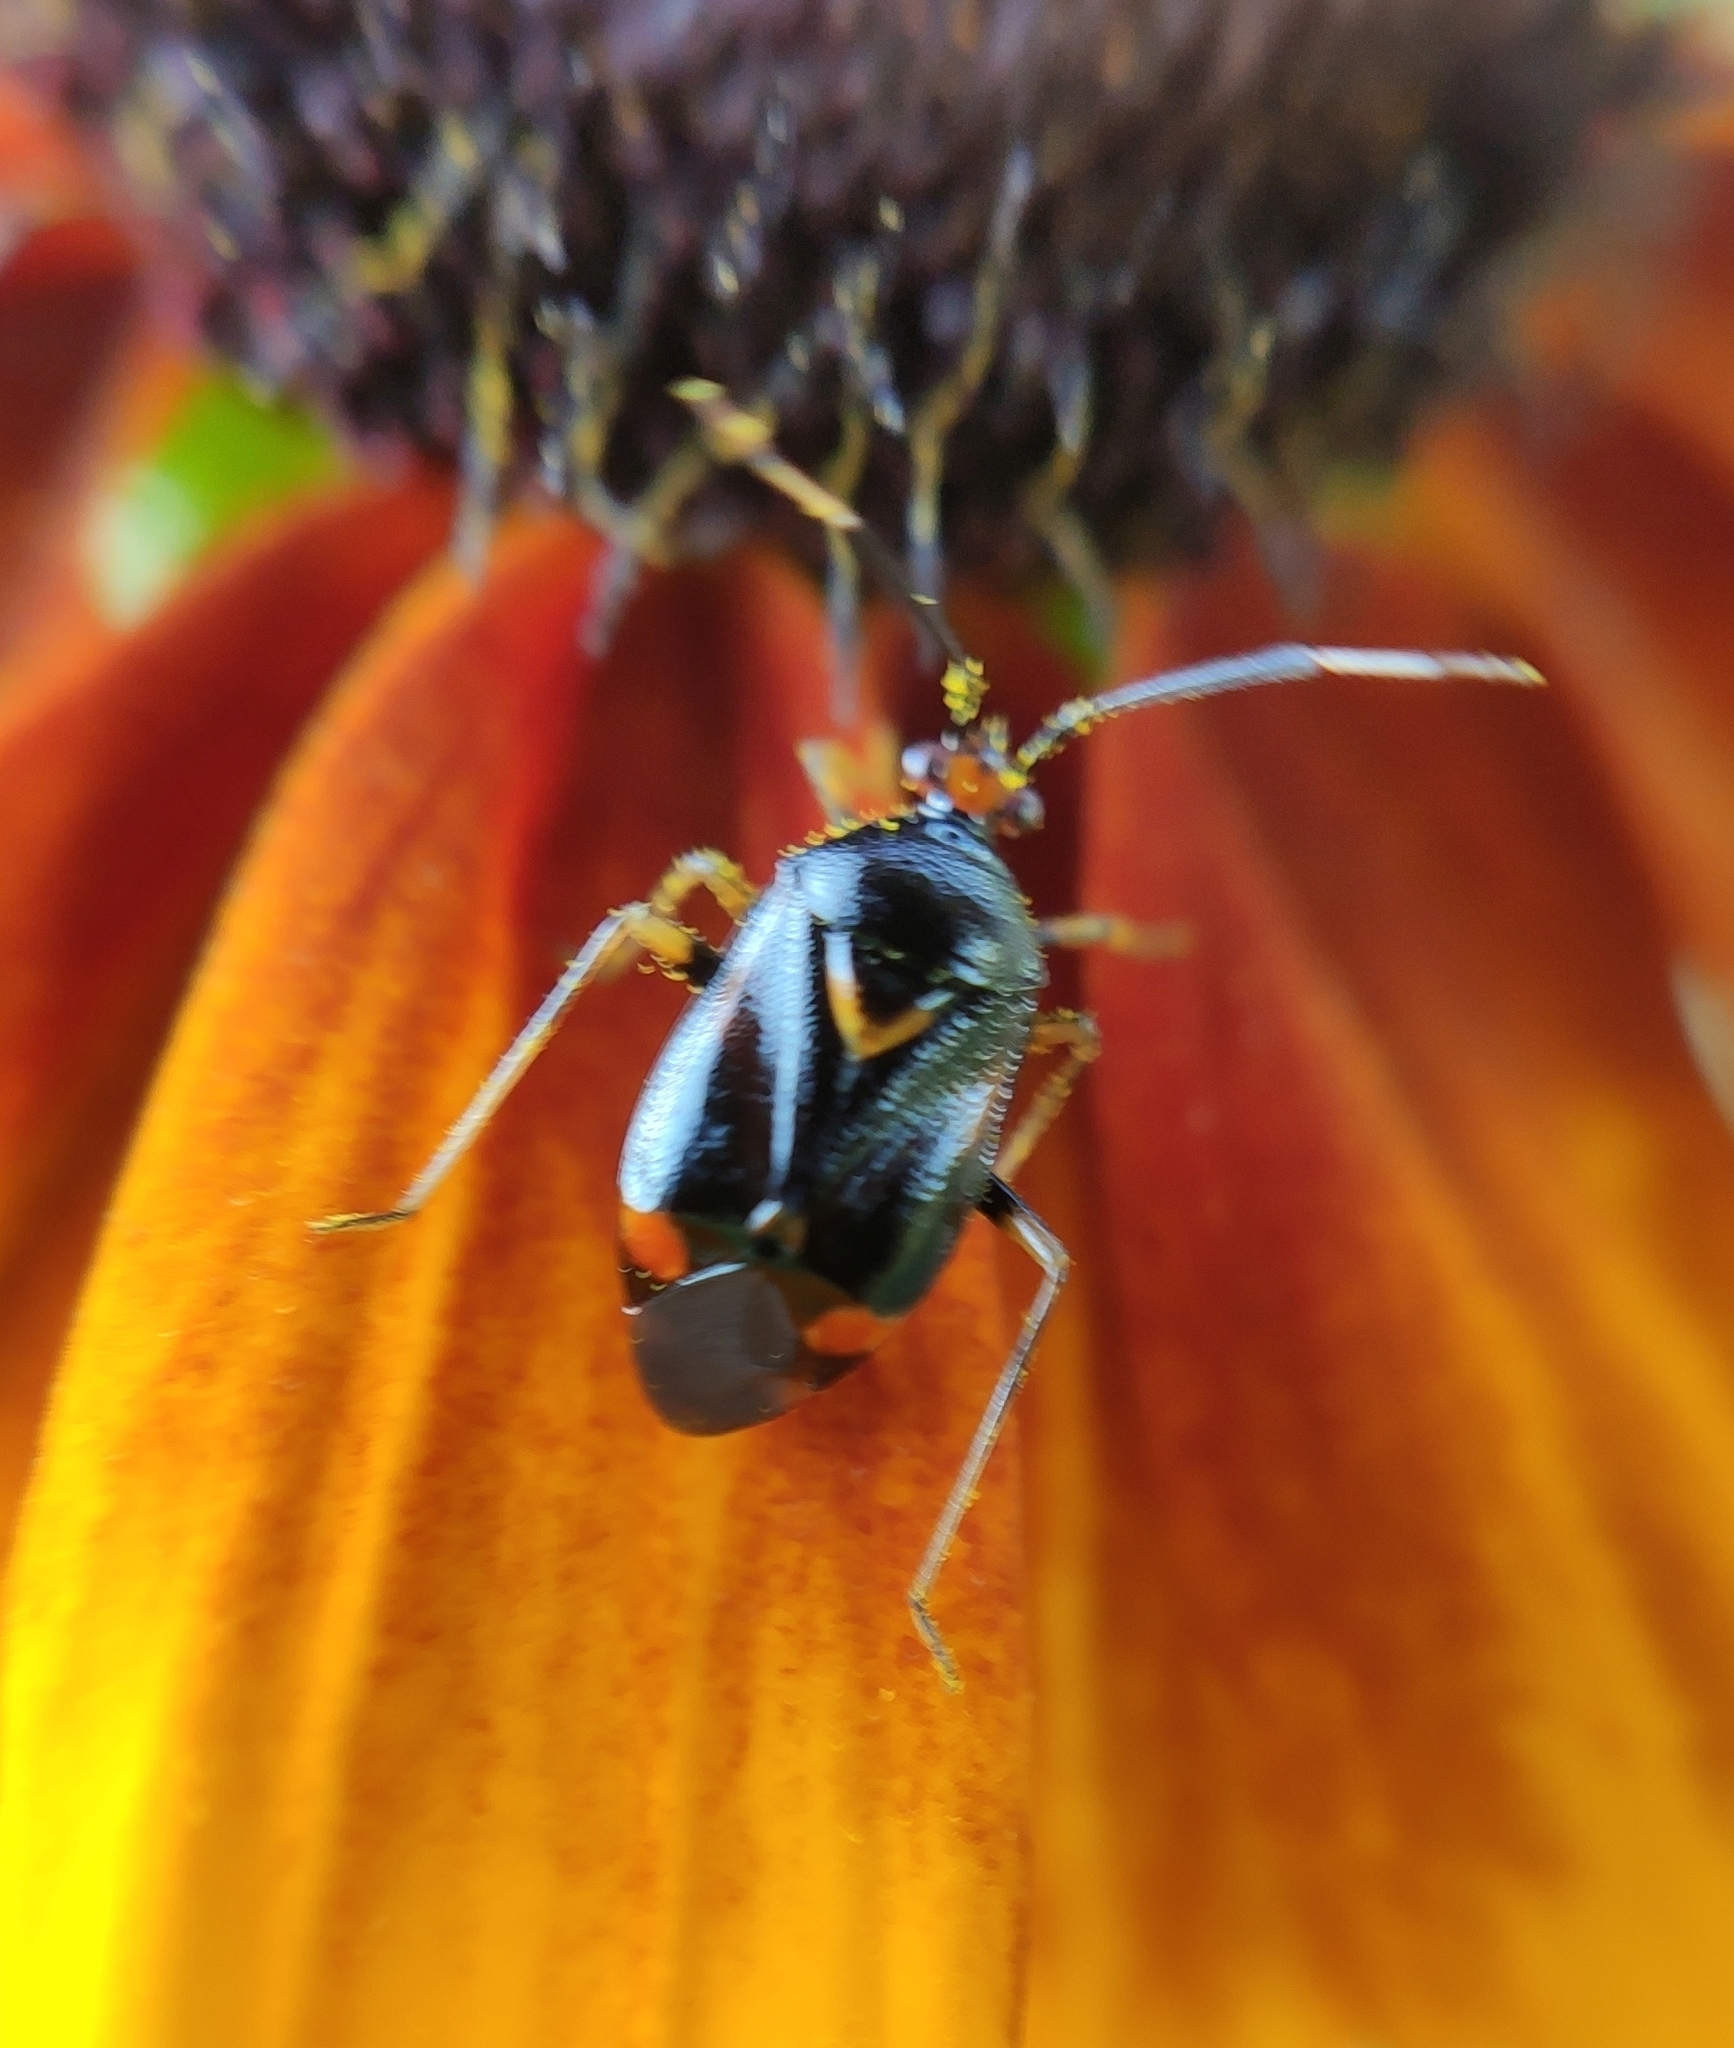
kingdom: Animalia
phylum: Arthropoda
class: Insecta
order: Hemiptera
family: Miridae
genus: Deraeocoris
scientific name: Deraeocoris ruber
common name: Plant bug
